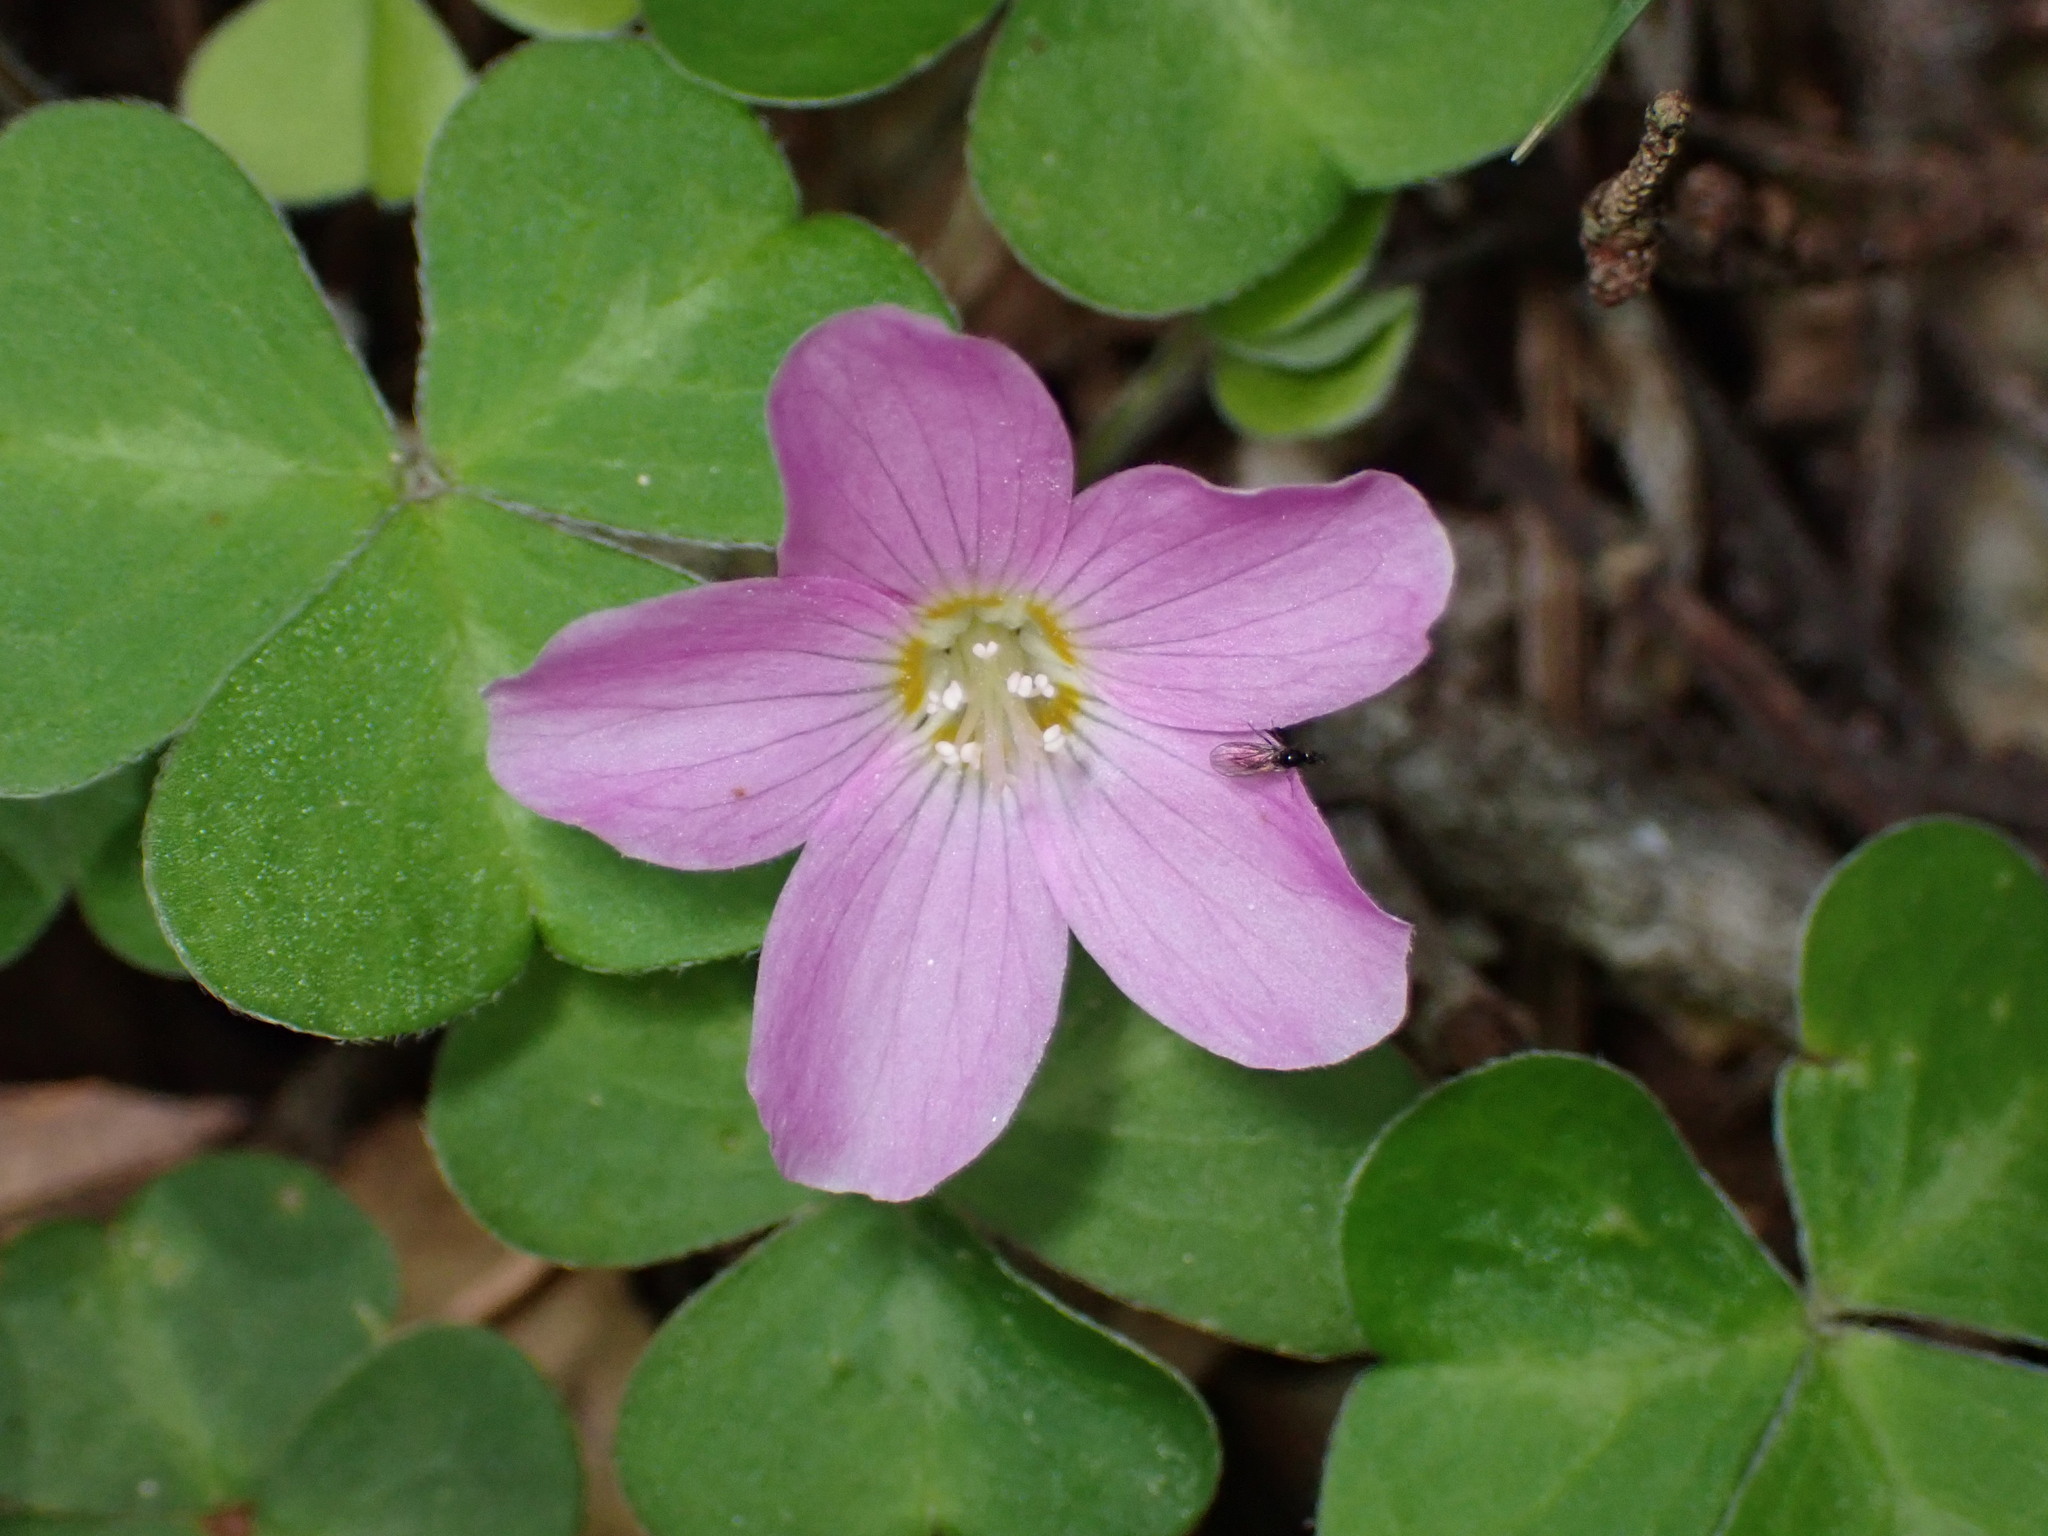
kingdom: Plantae
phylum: Tracheophyta
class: Magnoliopsida
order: Oxalidales
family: Oxalidaceae
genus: Oxalis
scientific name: Oxalis oregana
